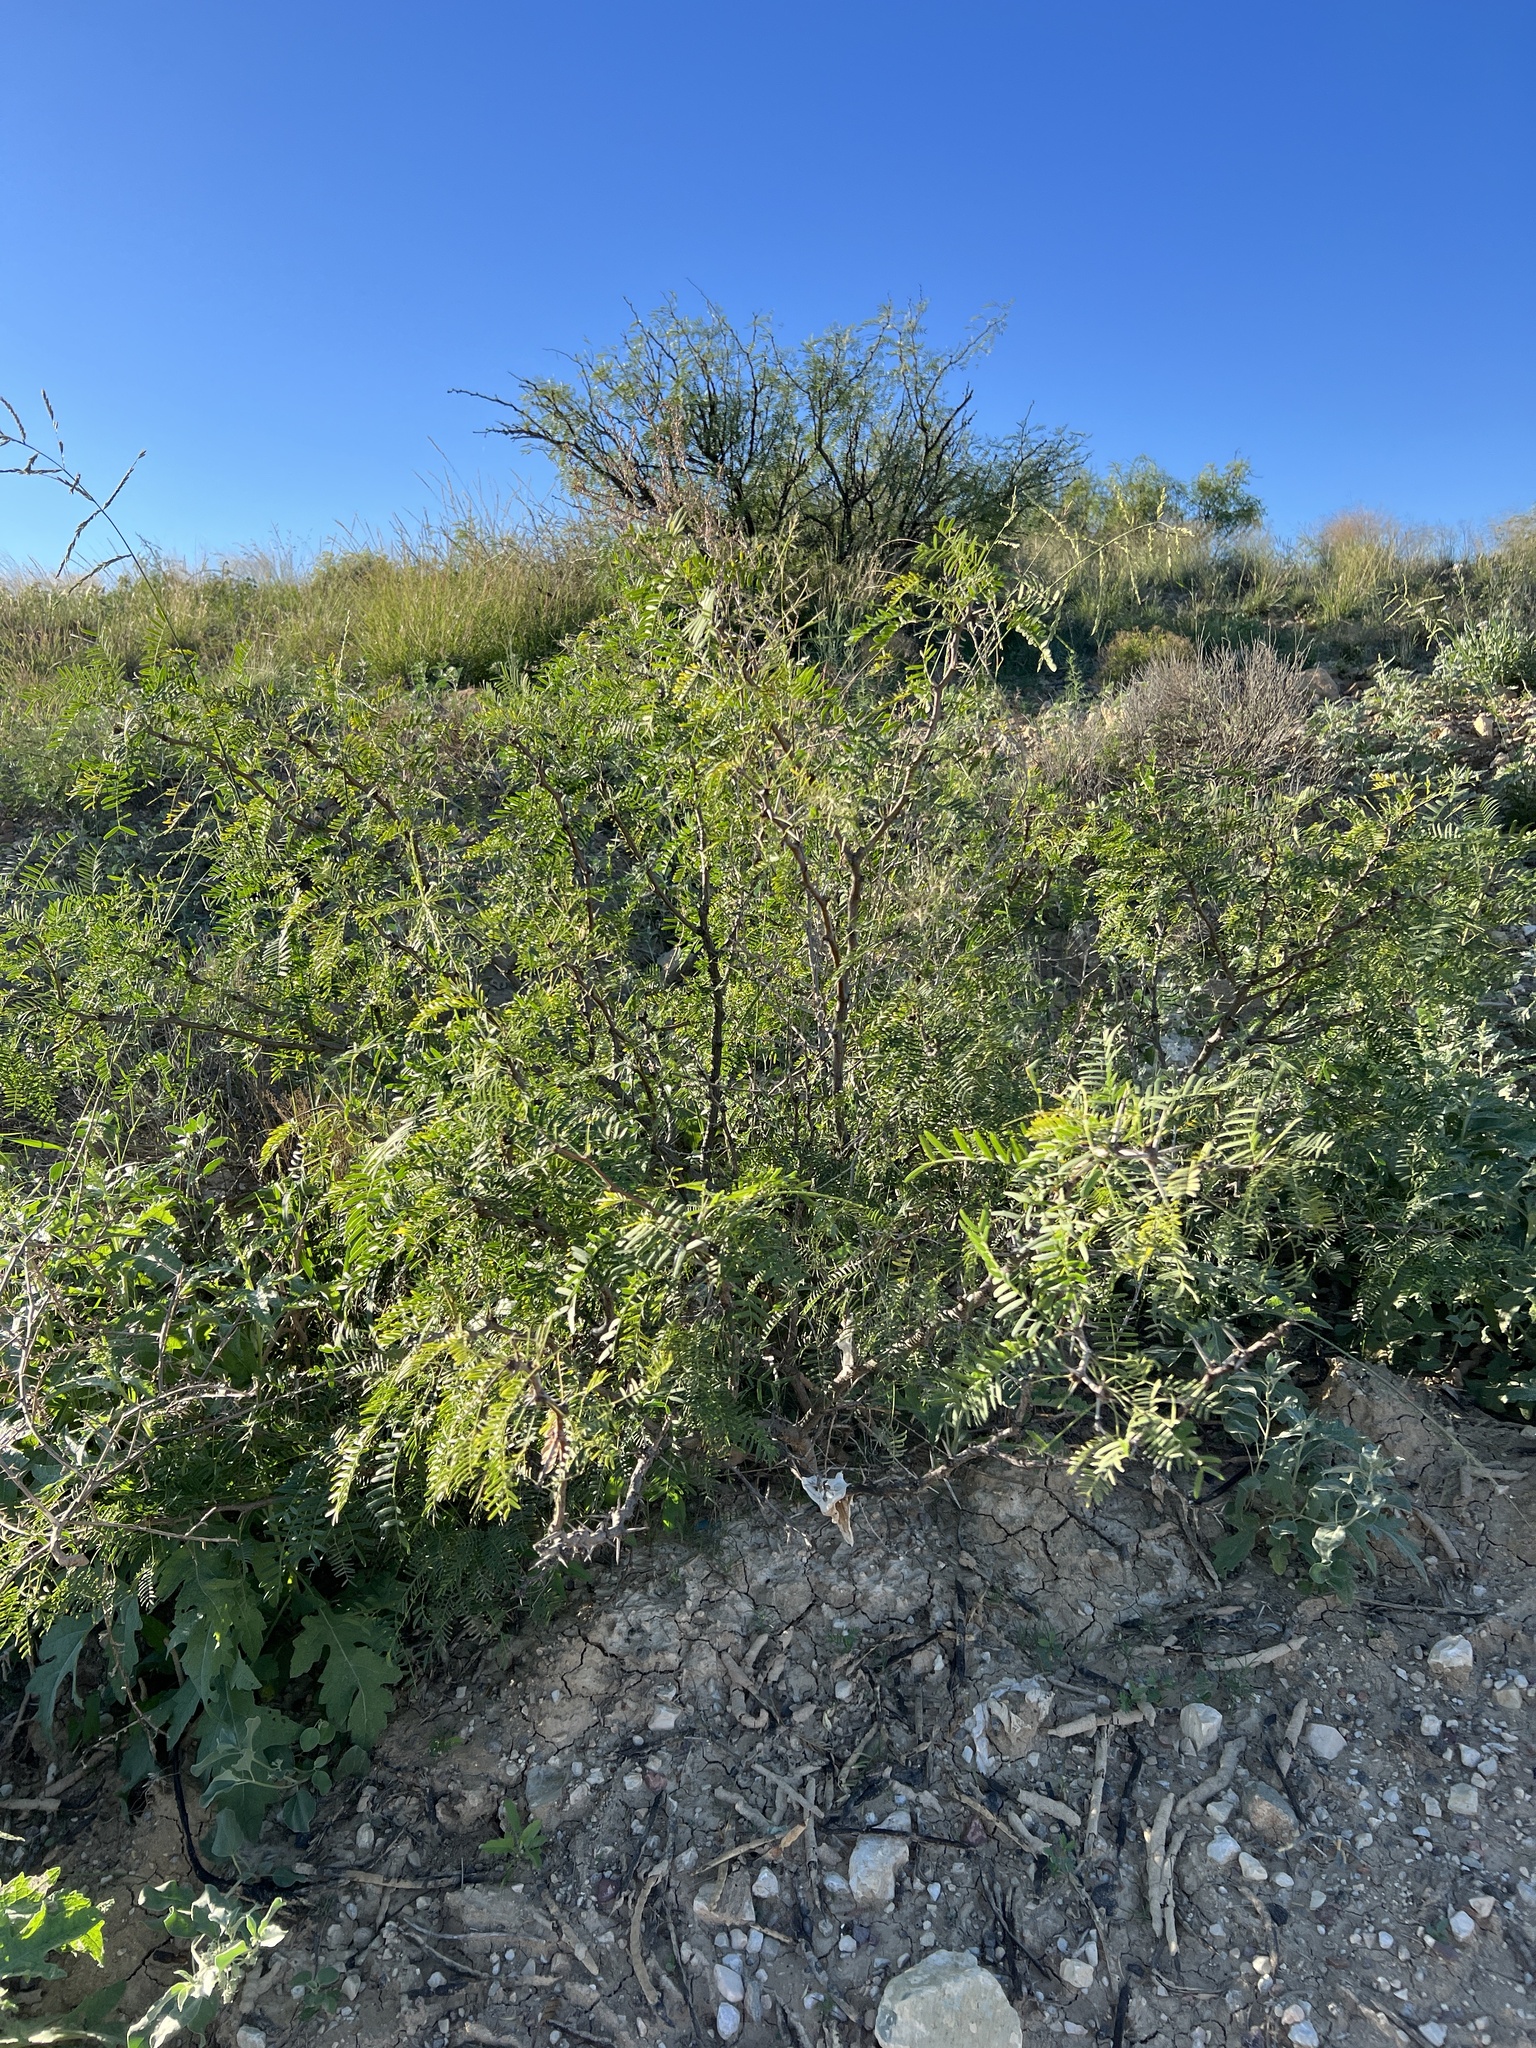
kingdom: Plantae
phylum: Tracheophyta
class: Magnoliopsida
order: Fabales
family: Fabaceae
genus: Prosopis
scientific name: Prosopis glandulosa
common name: Honey mesquite
